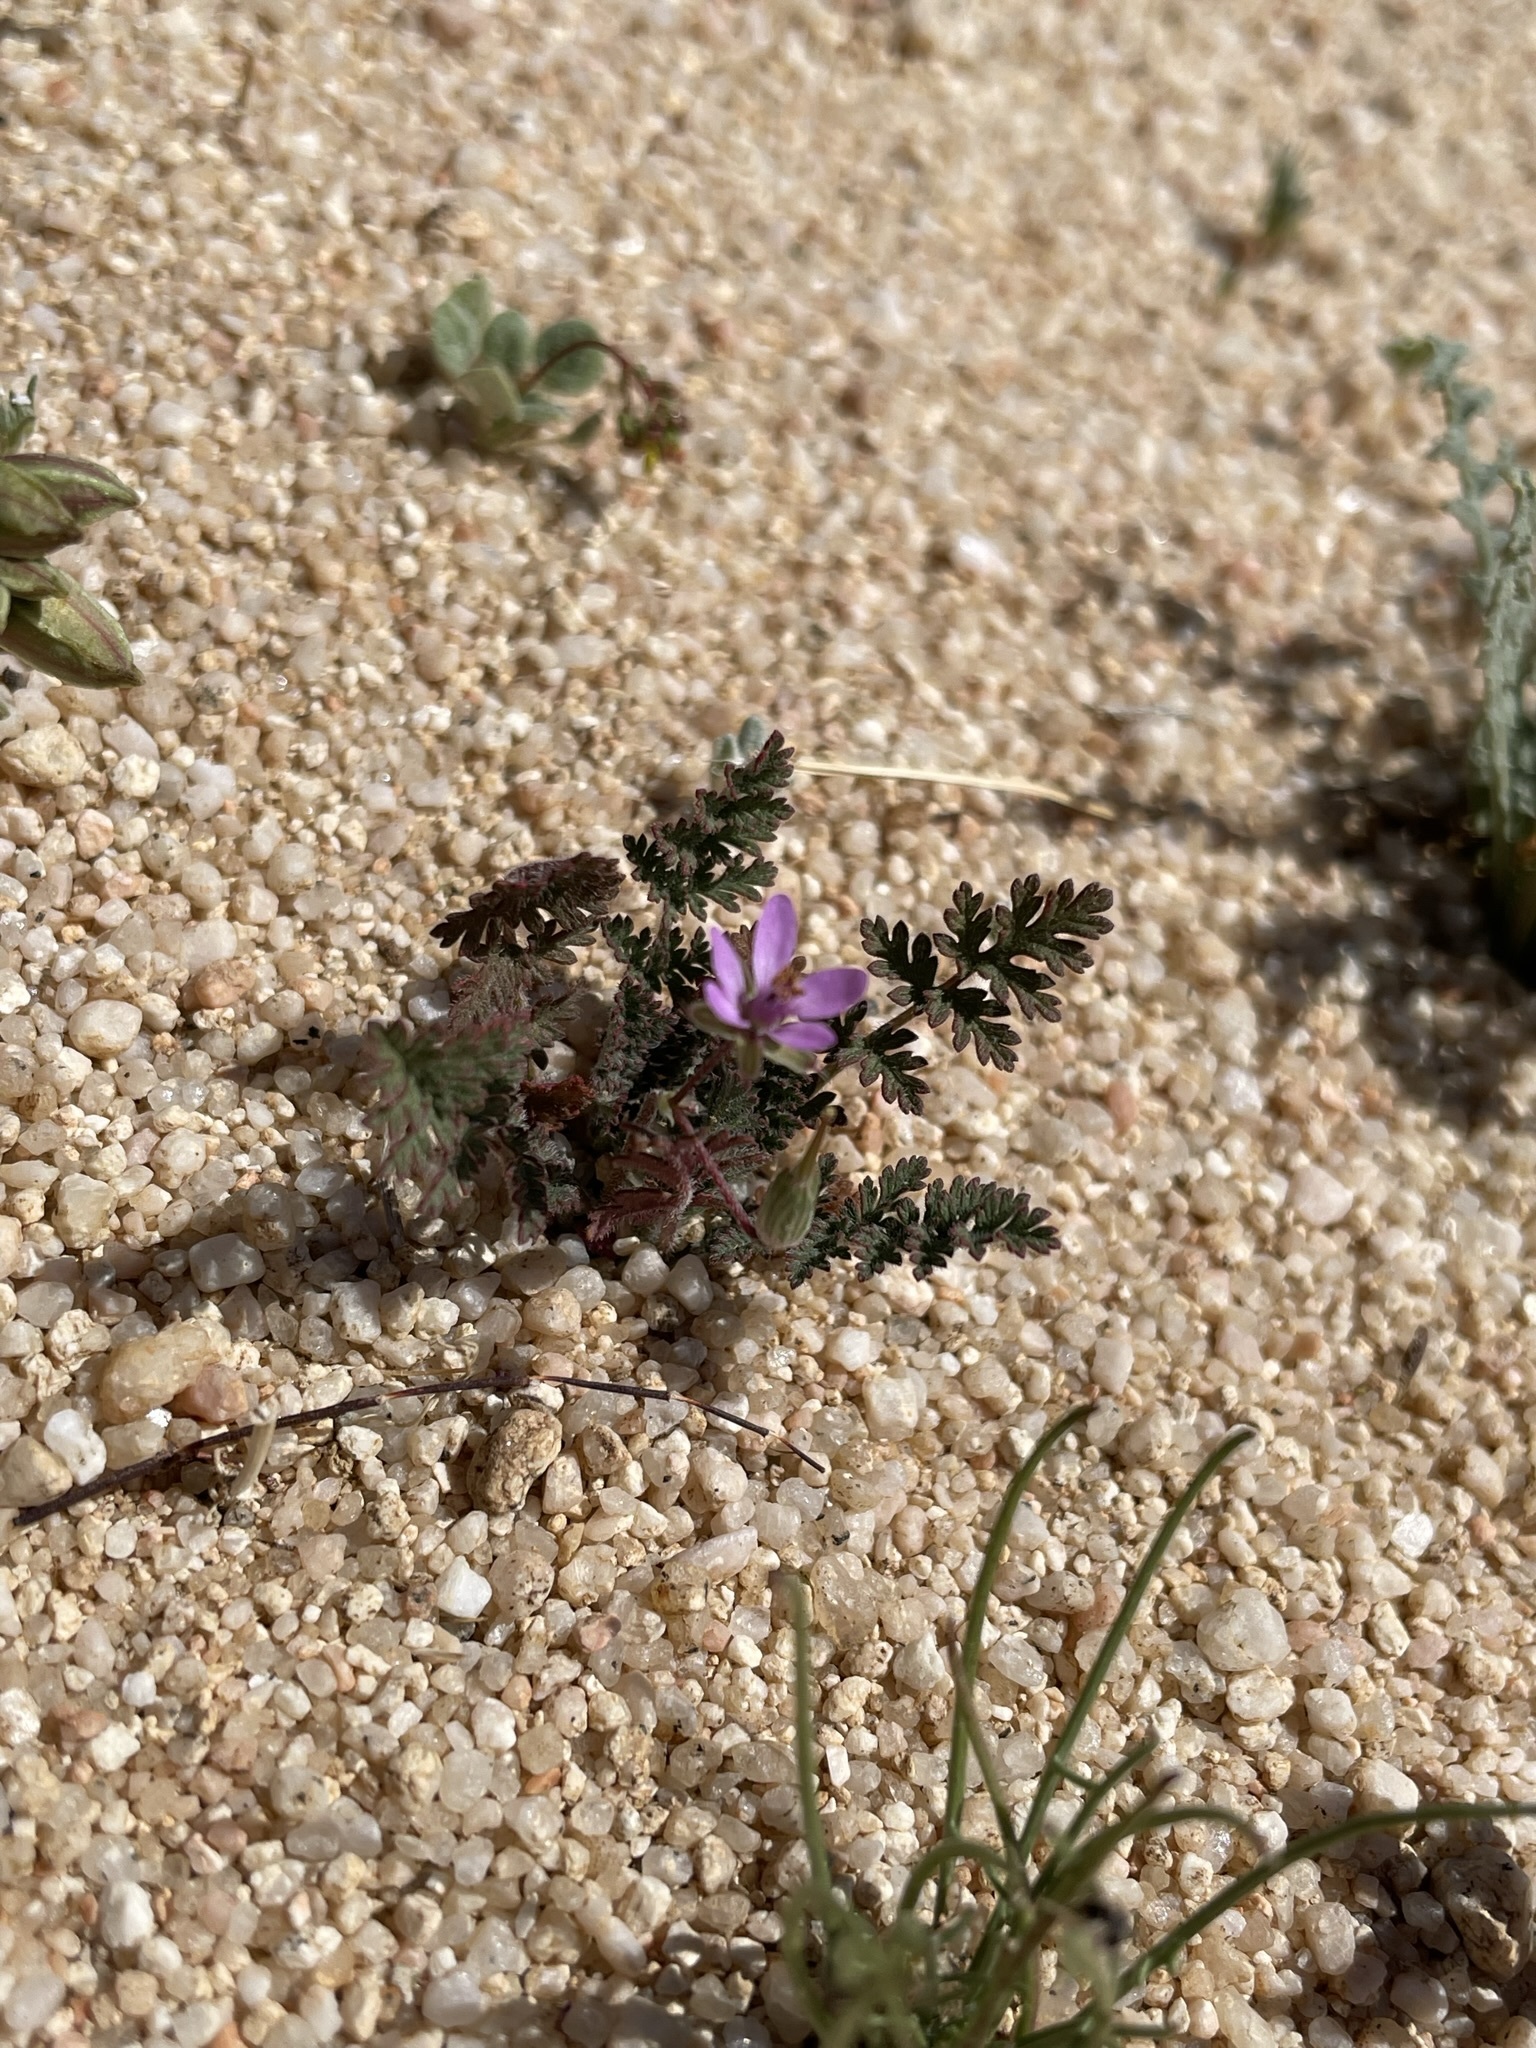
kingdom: Plantae
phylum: Tracheophyta
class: Magnoliopsida
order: Geraniales
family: Geraniaceae
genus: Erodium
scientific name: Erodium cicutarium
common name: Common stork's-bill
